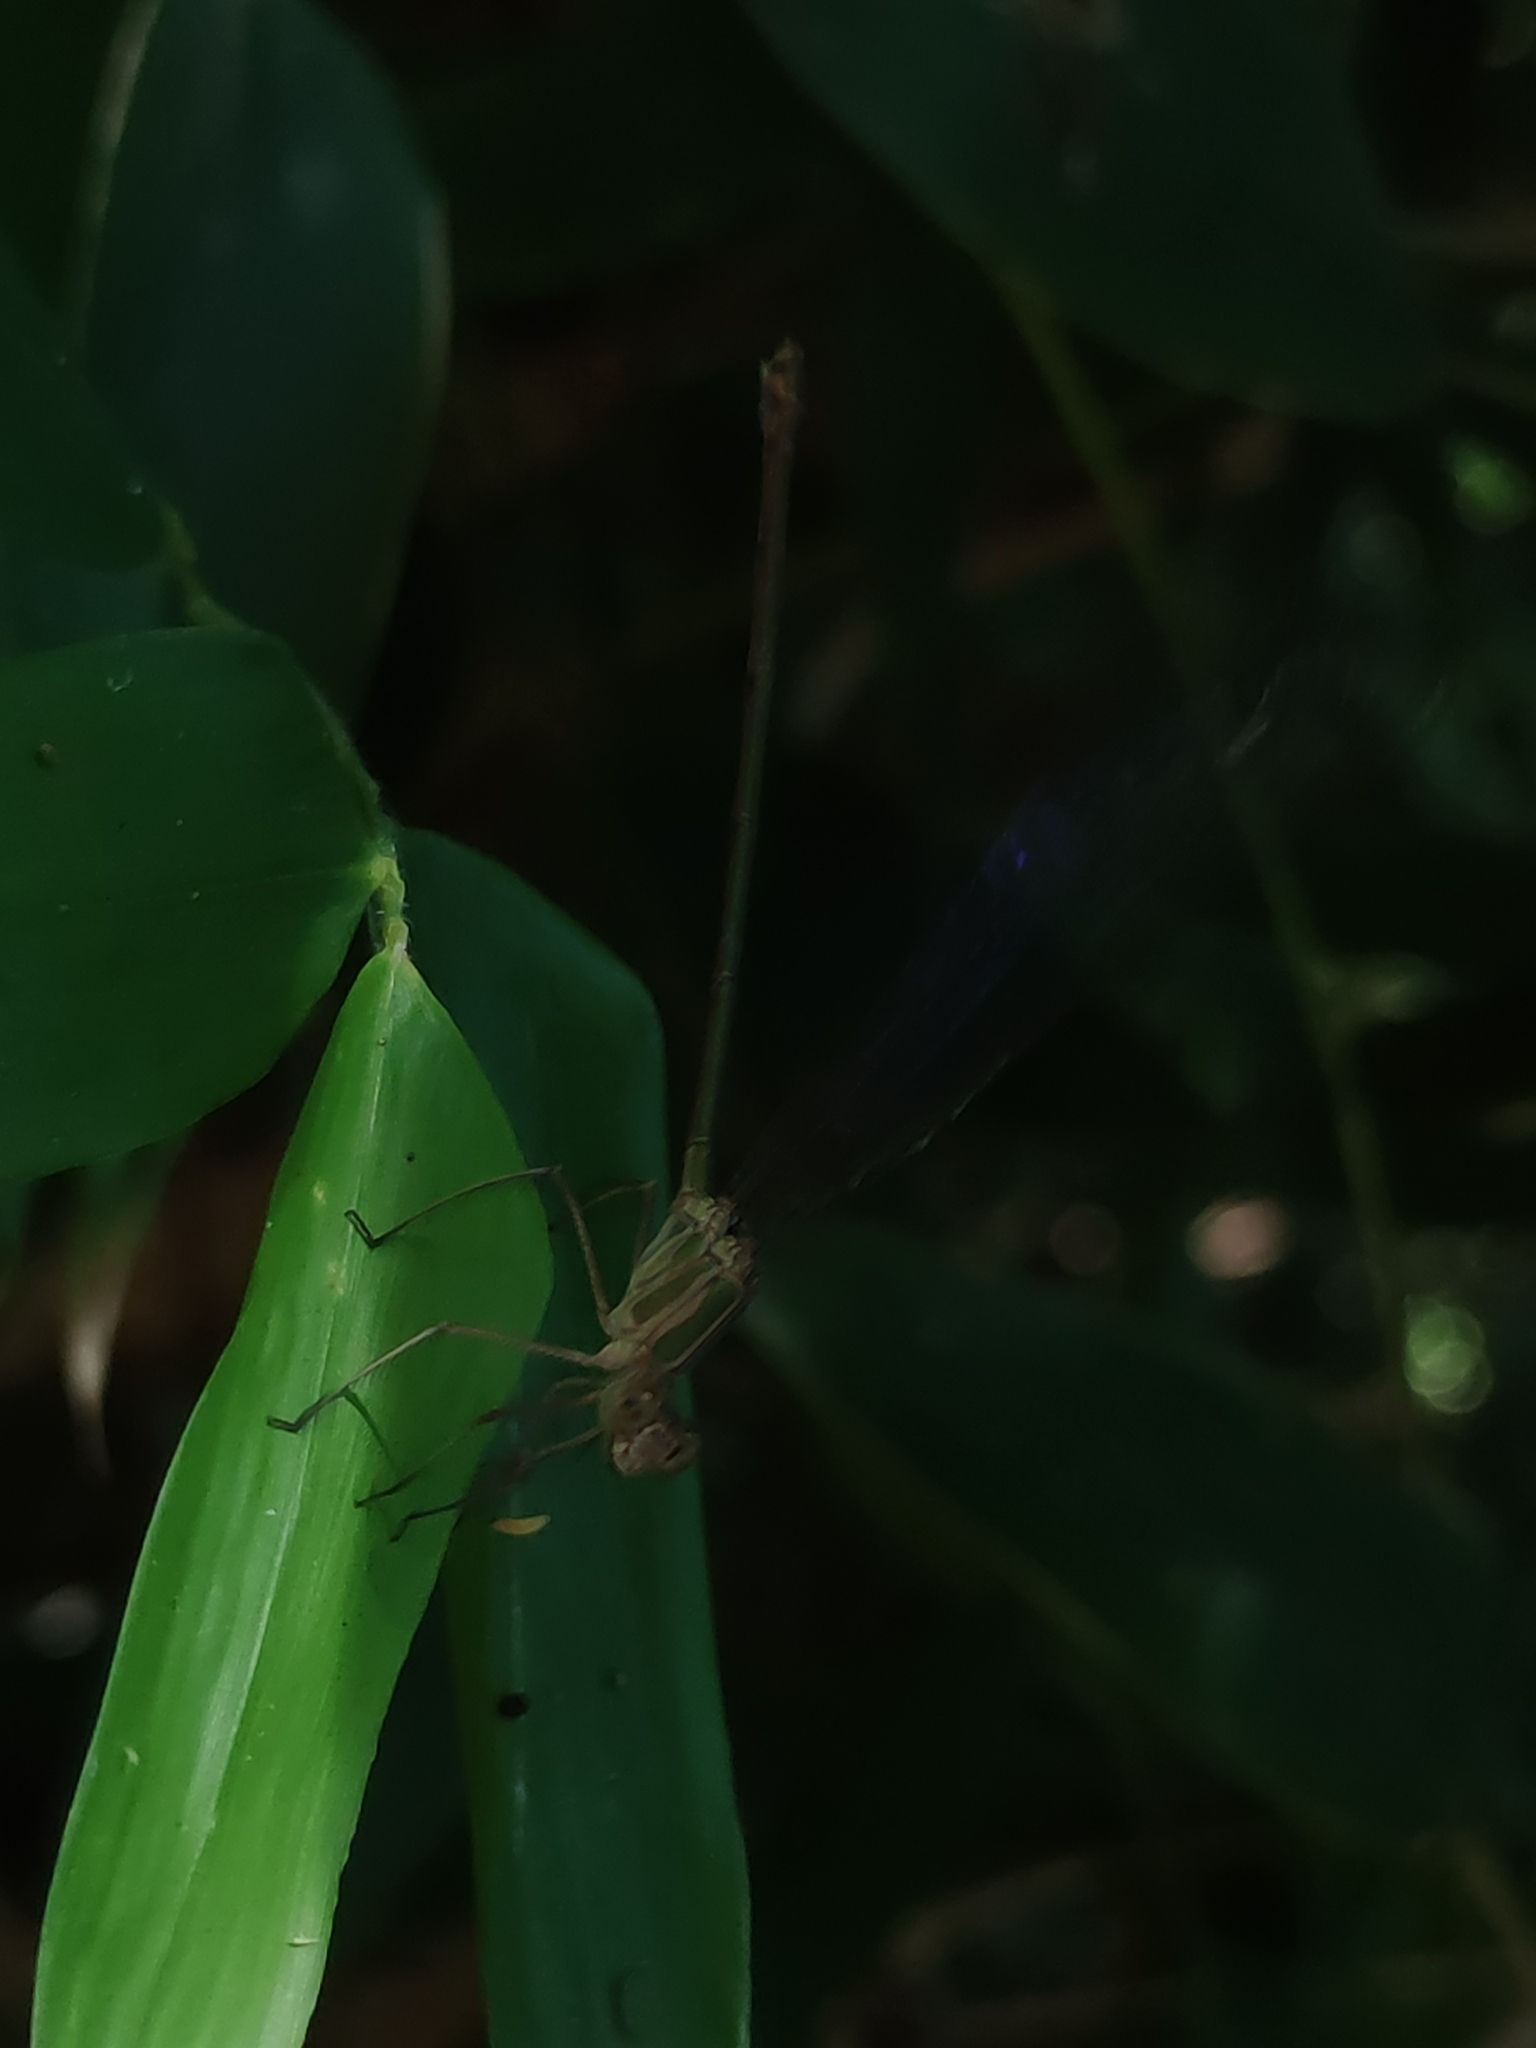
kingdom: Animalia
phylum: Arthropoda
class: Insecta
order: Odonata
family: Calopterygidae
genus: Phaon
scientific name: Phaon iridipennis
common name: Glistening demoiselle
